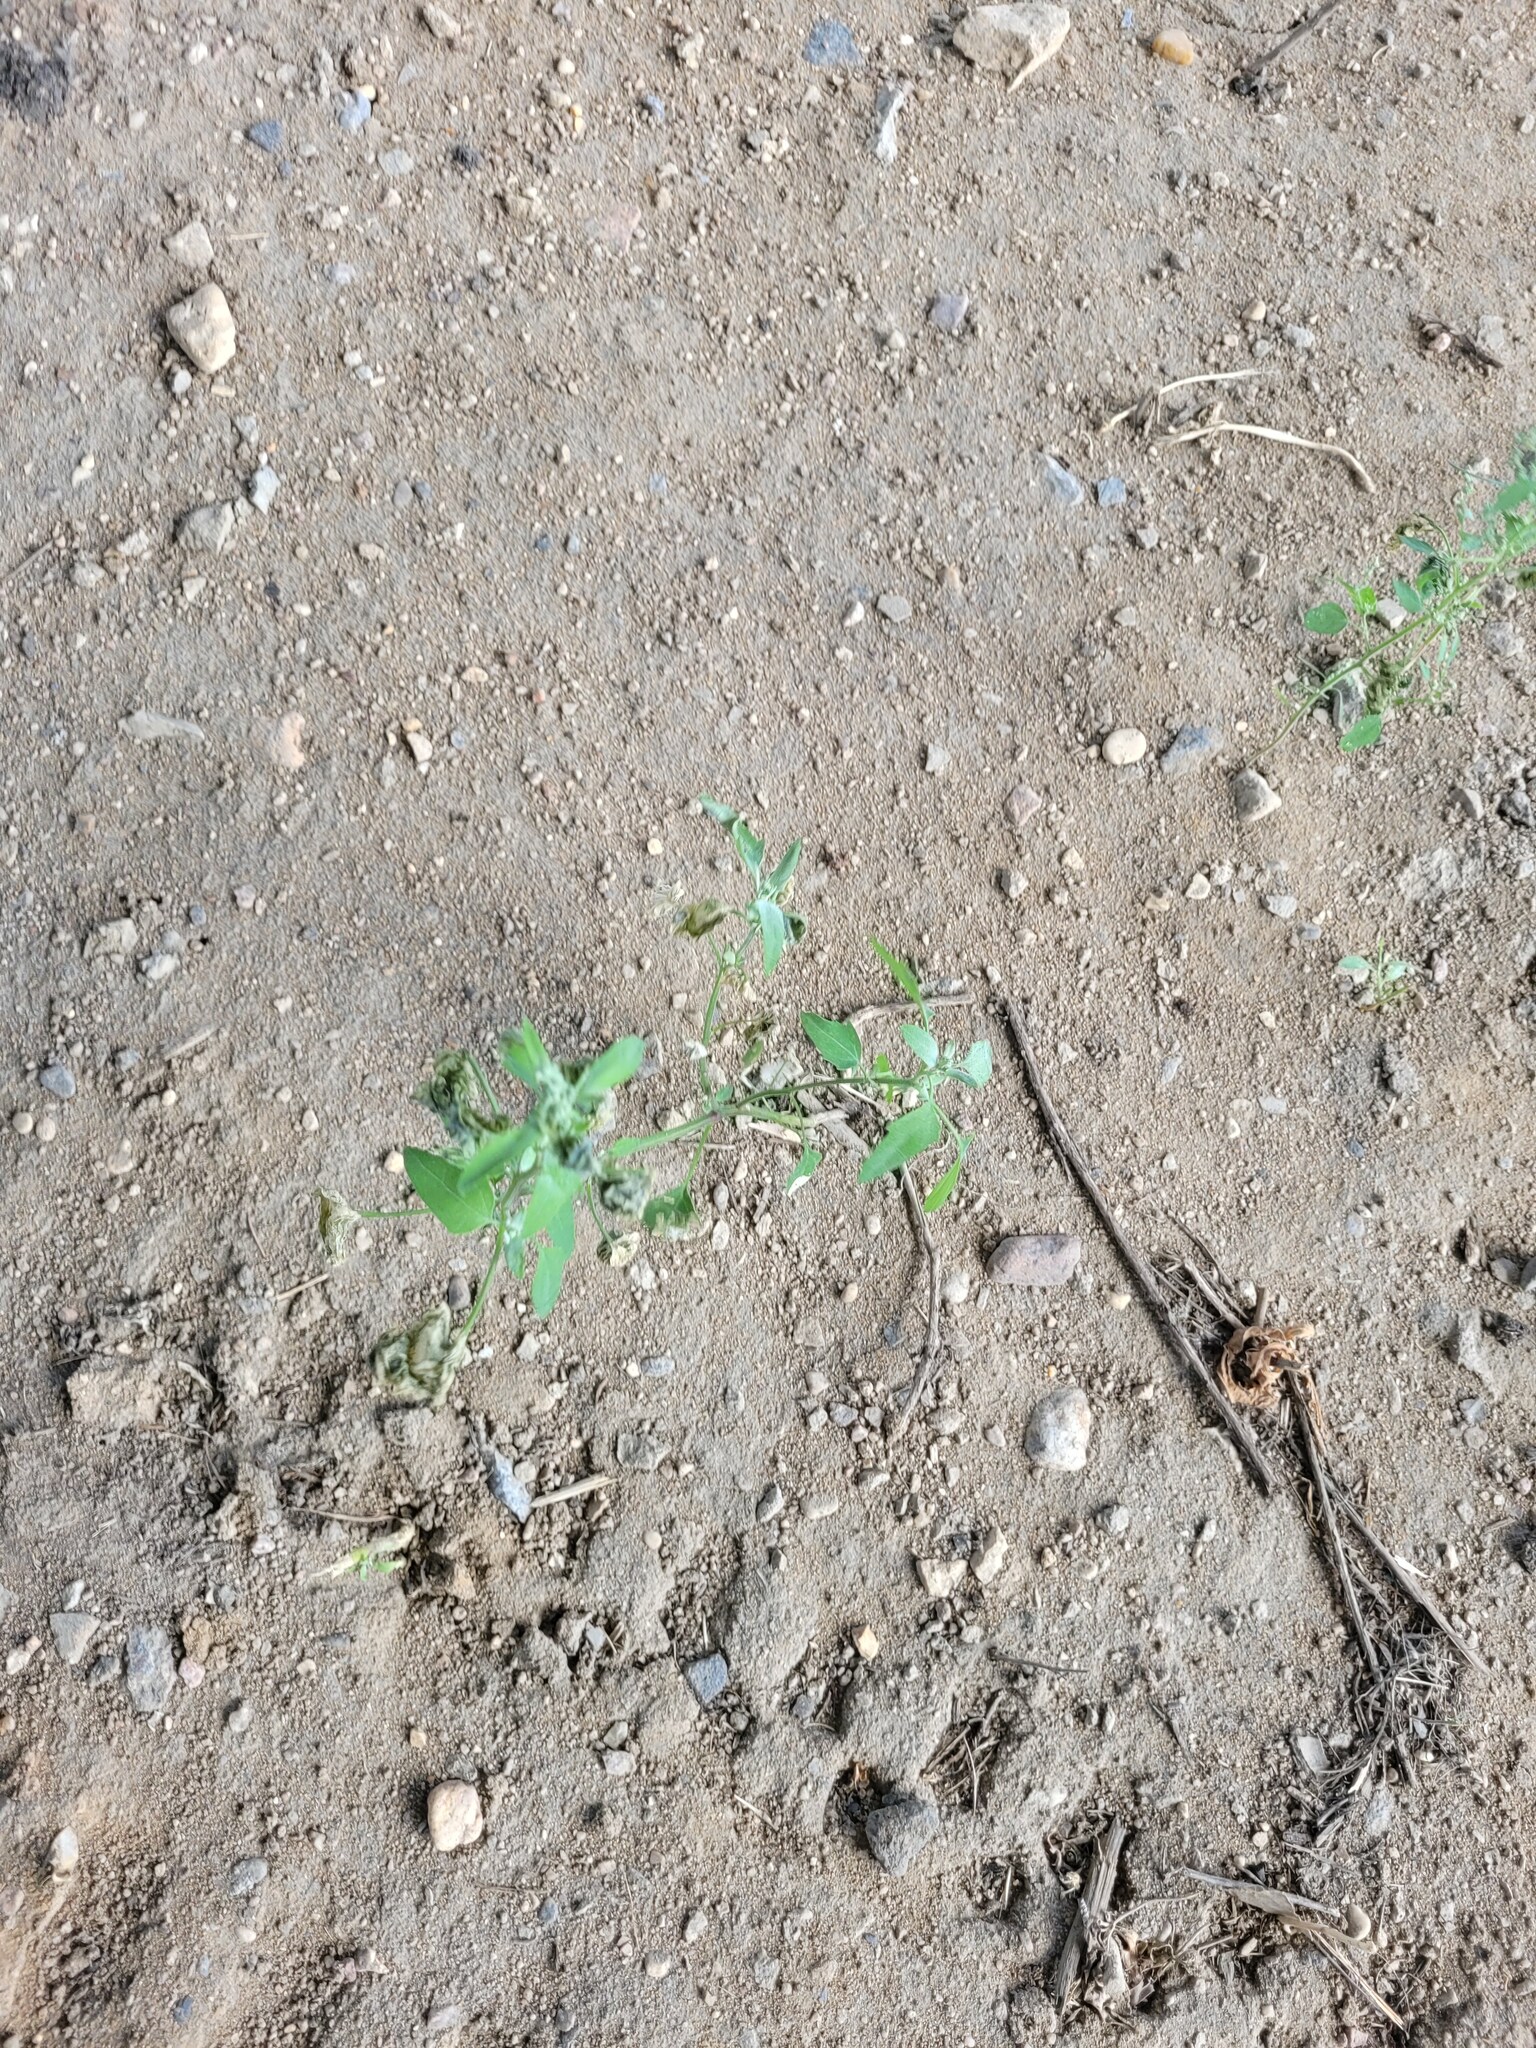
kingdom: Plantae
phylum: Tracheophyta
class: Magnoliopsida
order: Caryophyllales
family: Amaranthaceae
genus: Chenopodium
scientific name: Chenopodium album
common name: Fat-hen
